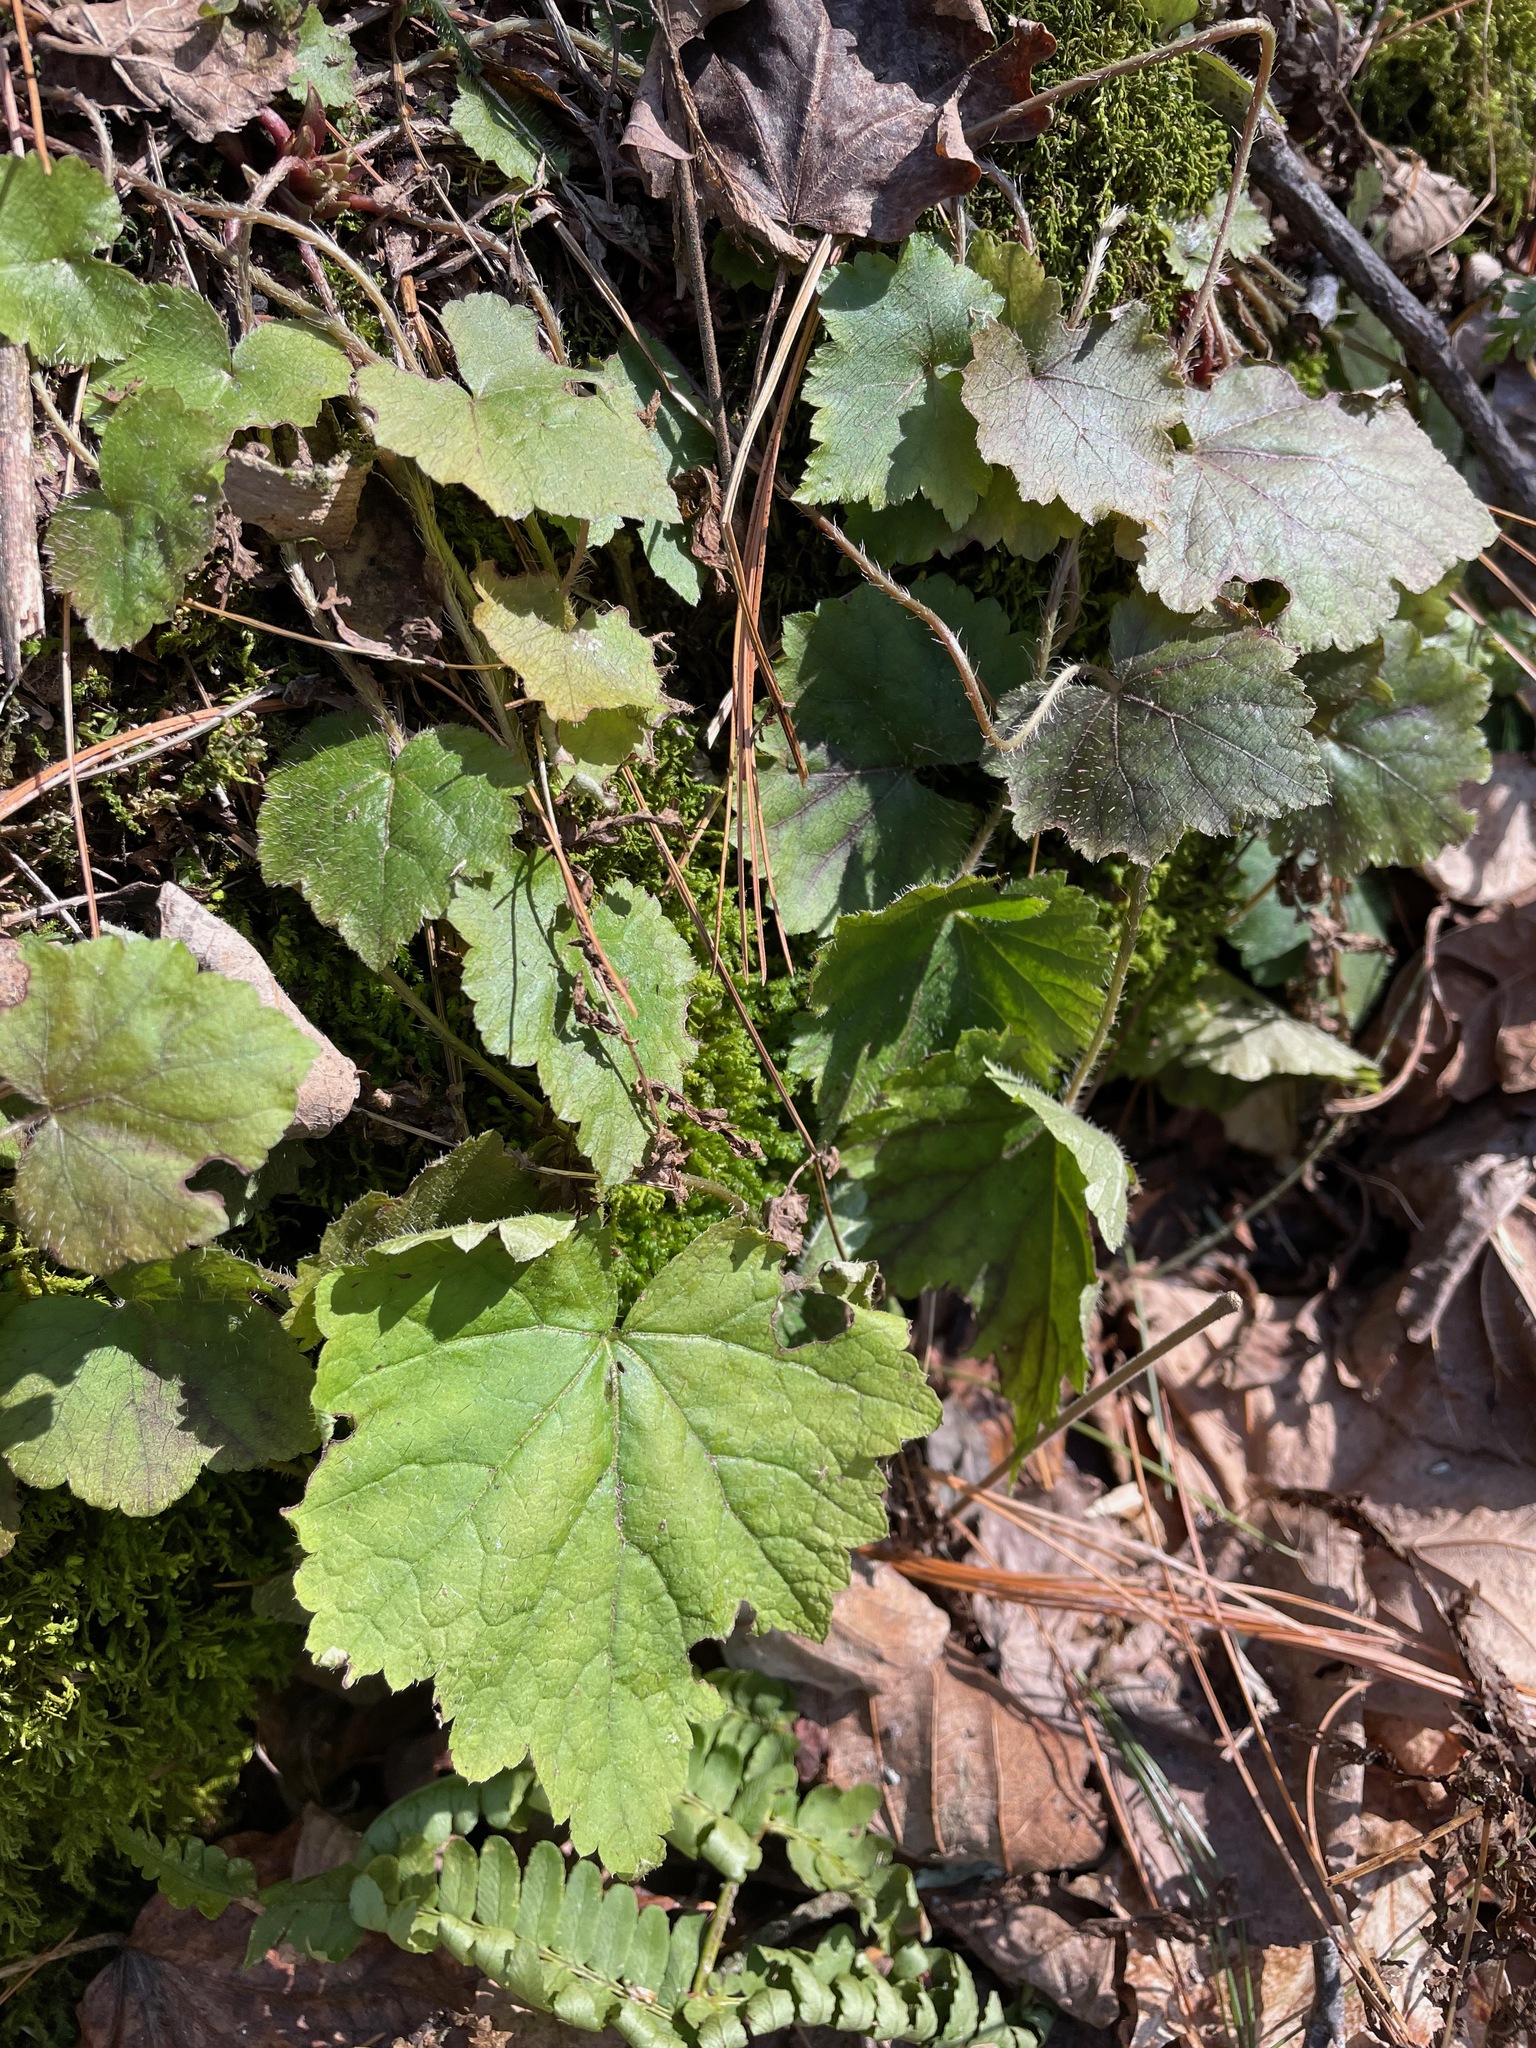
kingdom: Plantae
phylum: Tracheophyta
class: Magnoliopsida
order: Saxifragales
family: Saxifragaceae
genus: Mitella
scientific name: Mitella diphylla
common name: Coolwort
